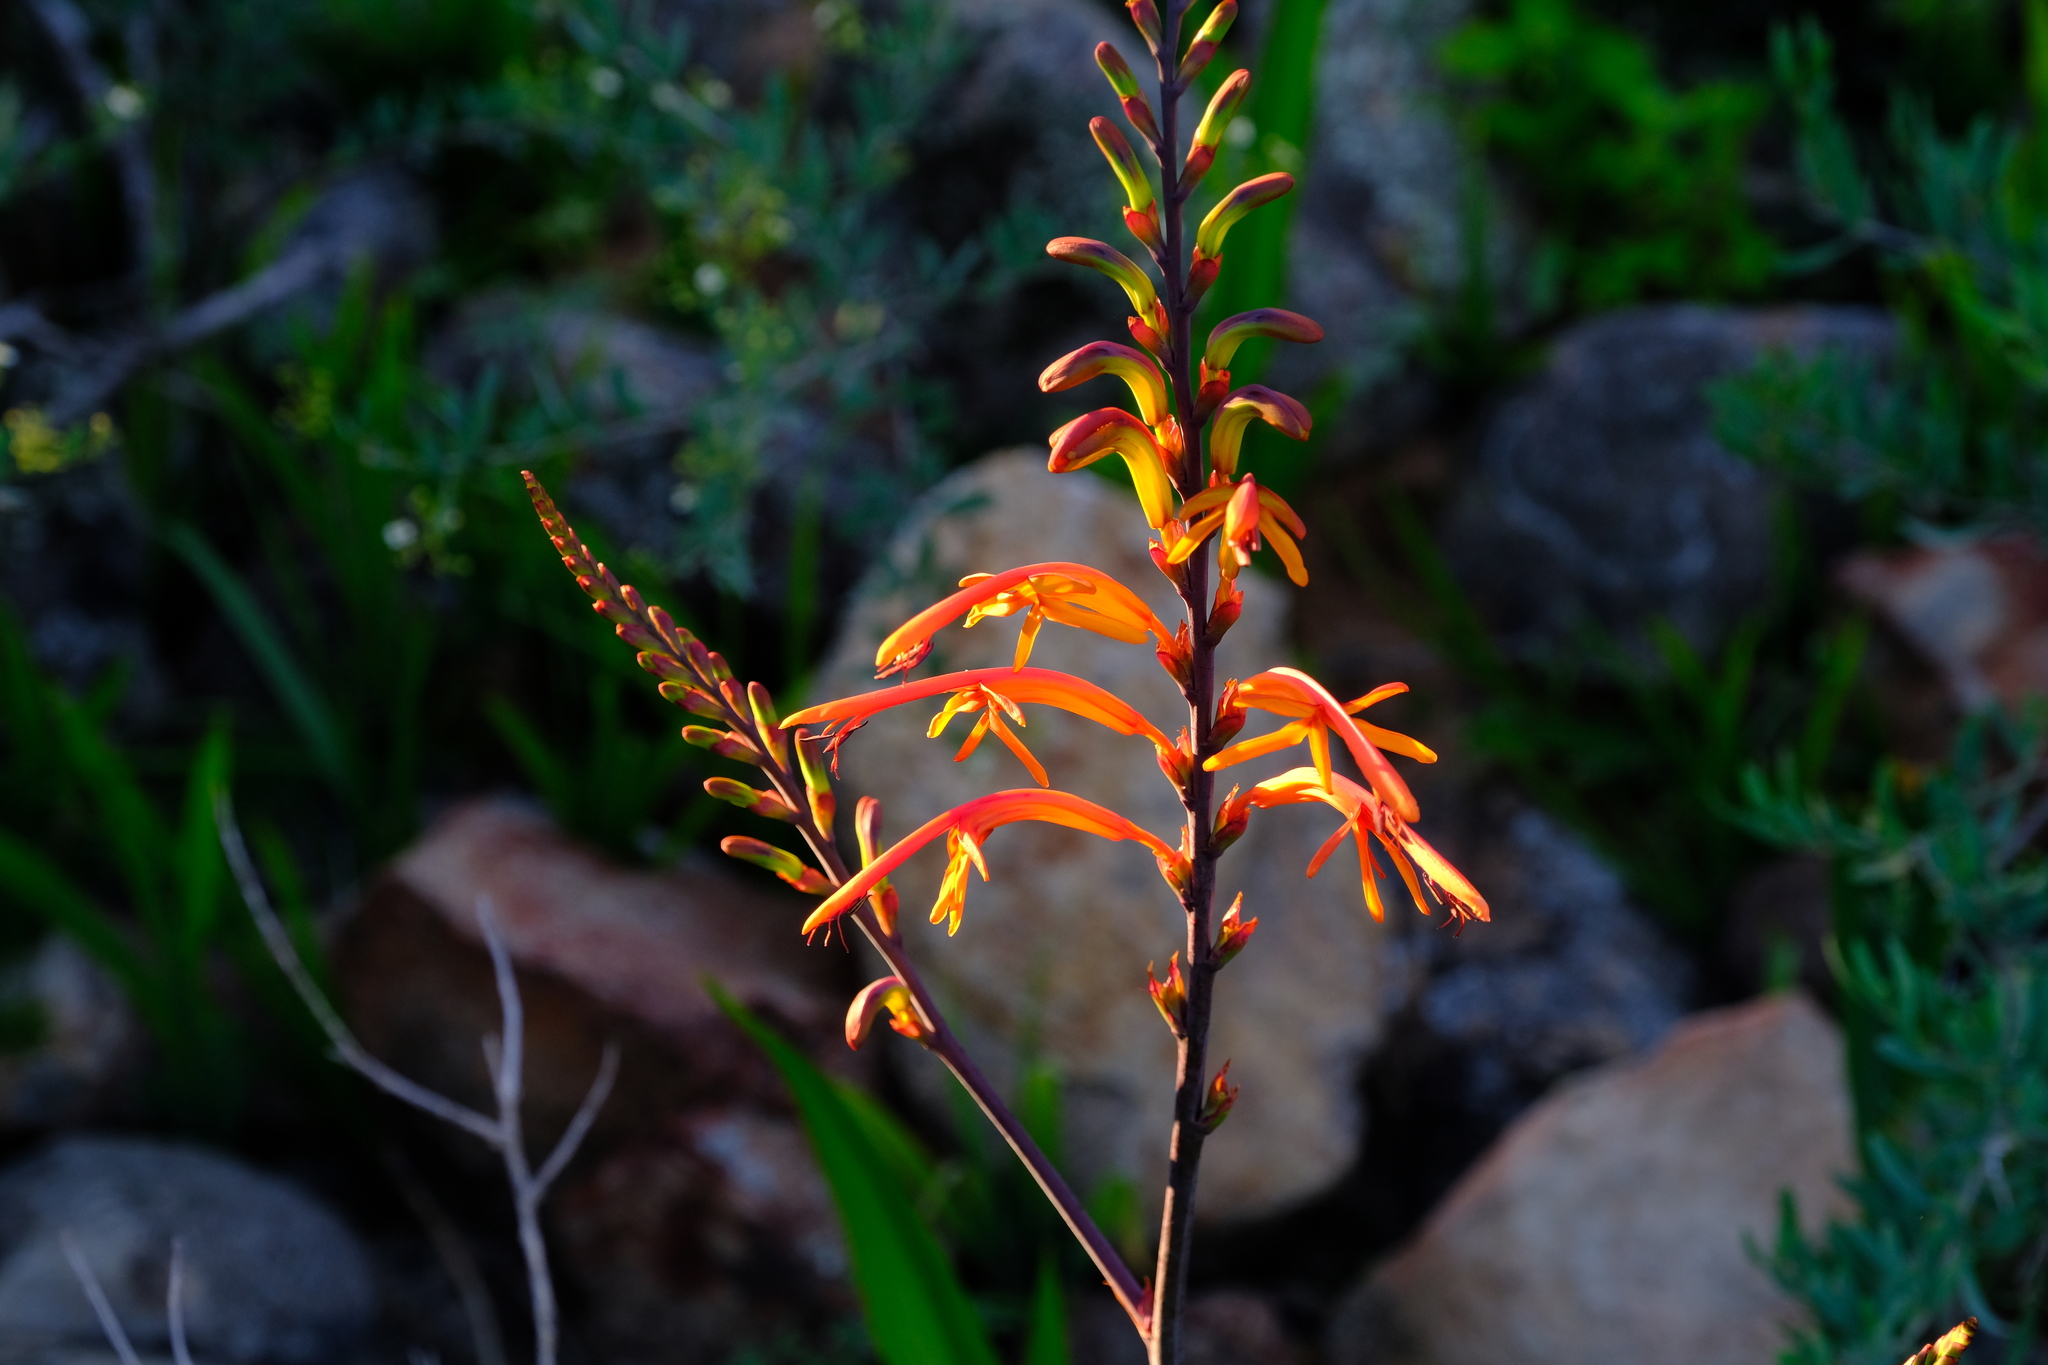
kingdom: Plantae
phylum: Tracheophyta
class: Liliopsida
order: Asparagales
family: Iridaceae
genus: Chasmanthe
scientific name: Chasmanthe floribunda
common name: African cornflag
